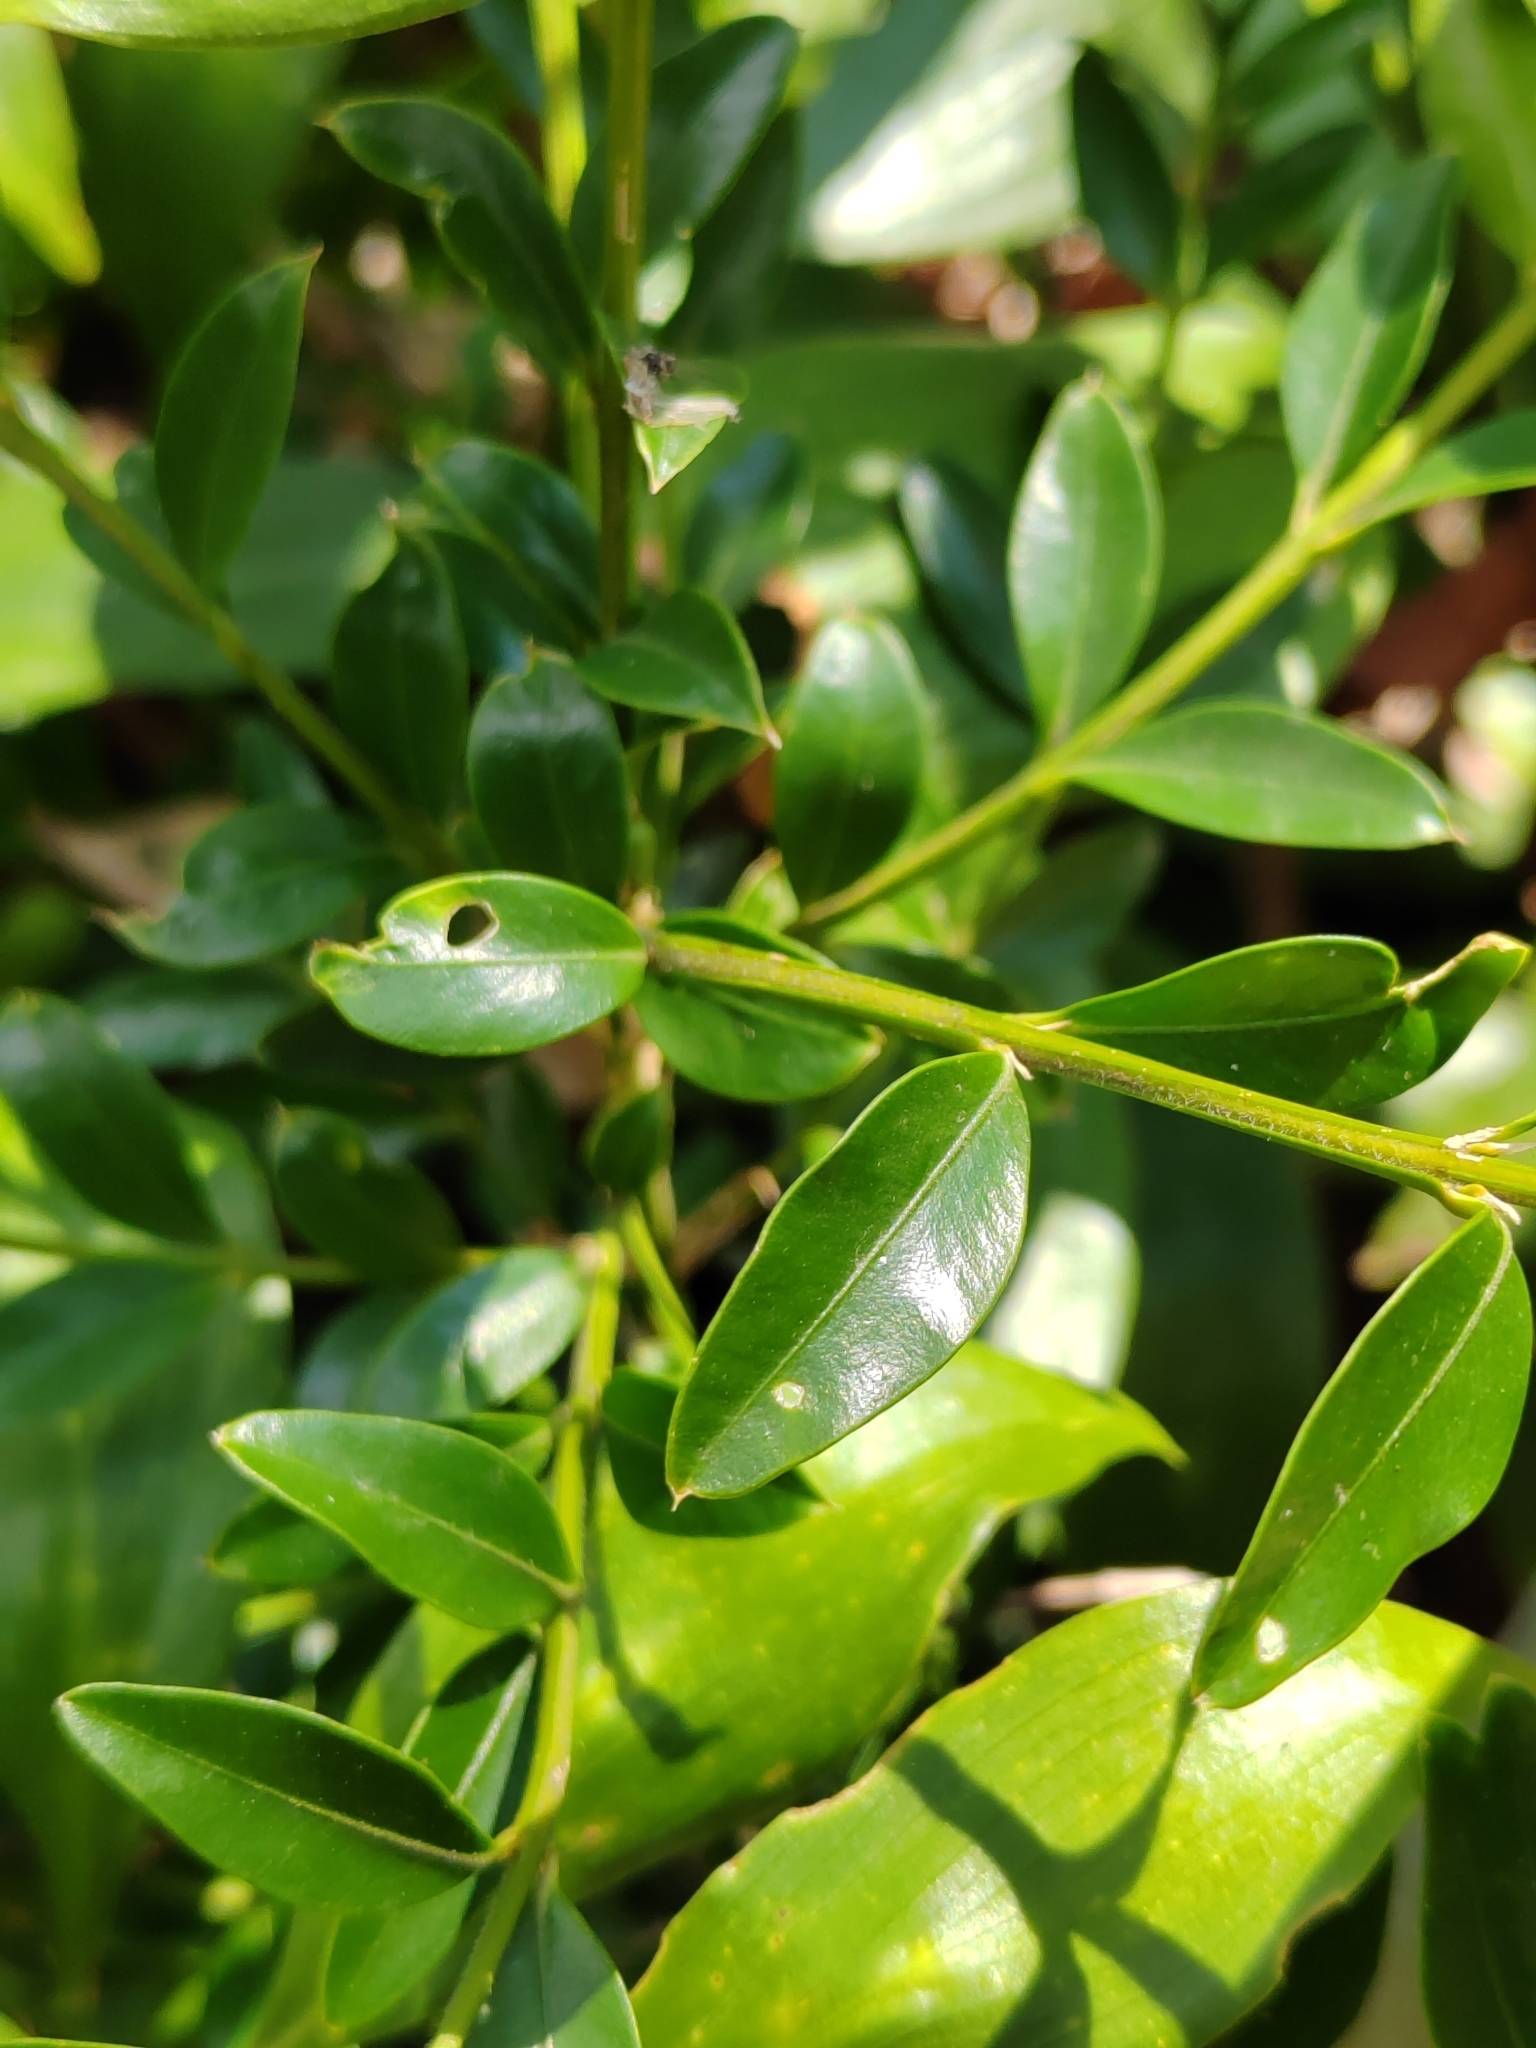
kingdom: Plantae
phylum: Tracheophyta
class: Magnoliopsida
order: Buxales
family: Buxaceae
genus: Buxus
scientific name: Buxus sempervirens
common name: Box
